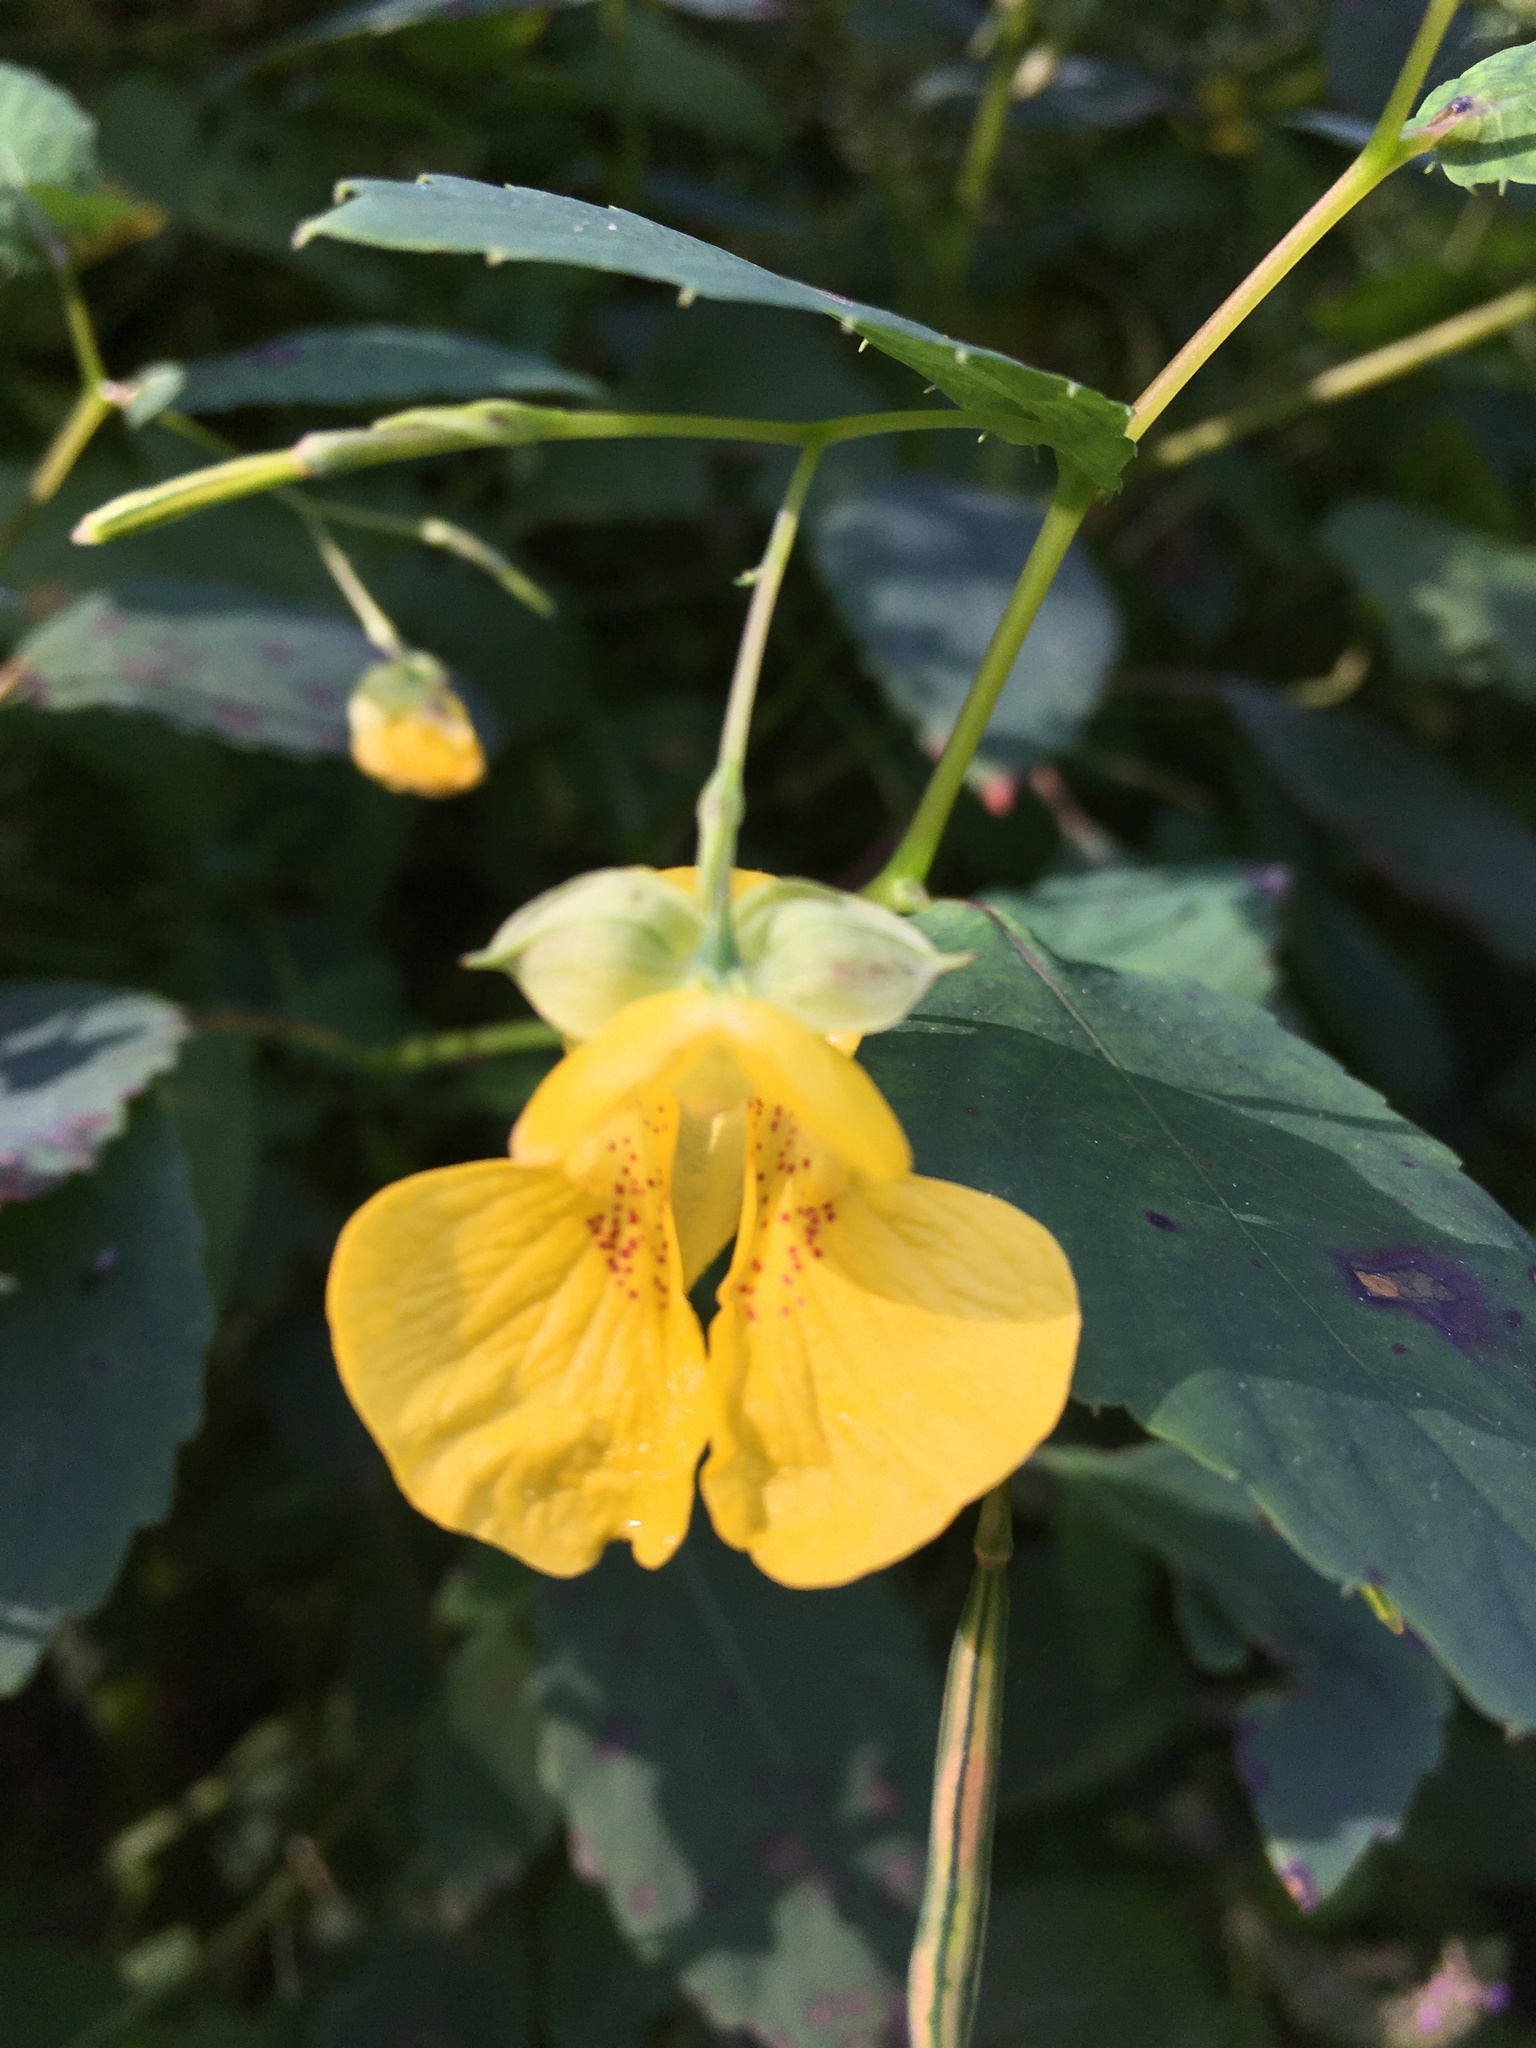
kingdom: Plantae
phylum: Tracheophyta
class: Magnoliopsida
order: Ericales
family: Balsaminaceae
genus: Impatiens
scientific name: Impatiens pallida
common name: Pale snapweed
